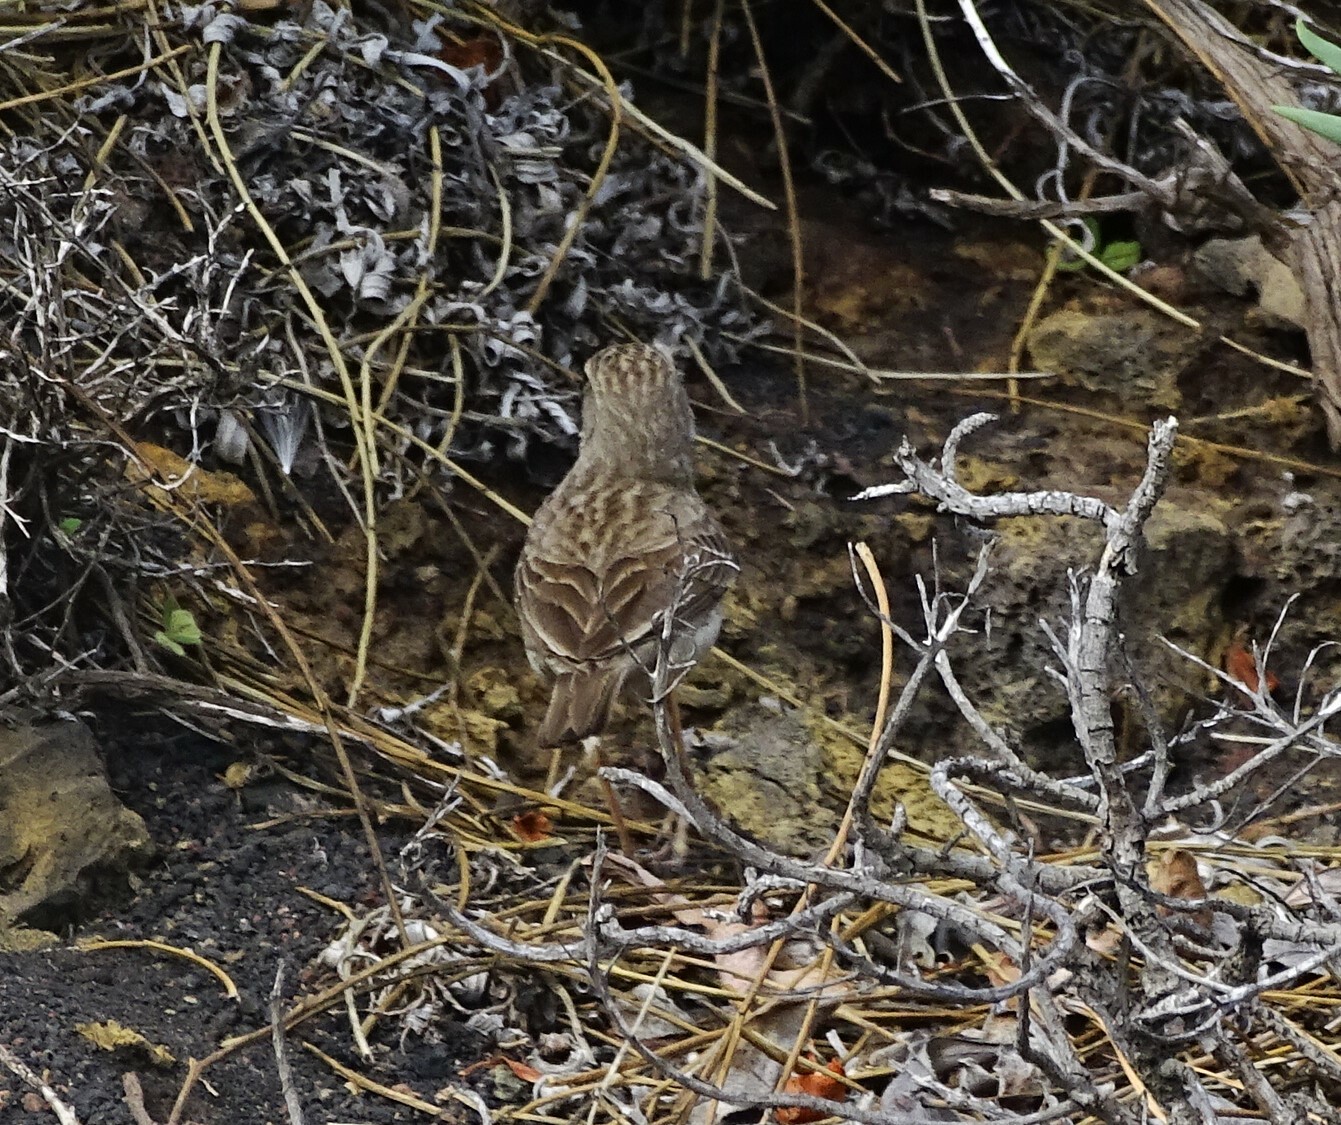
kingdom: Animalia
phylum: Chordata
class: Aves
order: Passeriformes
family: Motacillidae
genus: Anthus
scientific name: Anthus berthelotii
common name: Berthelot's pipit
